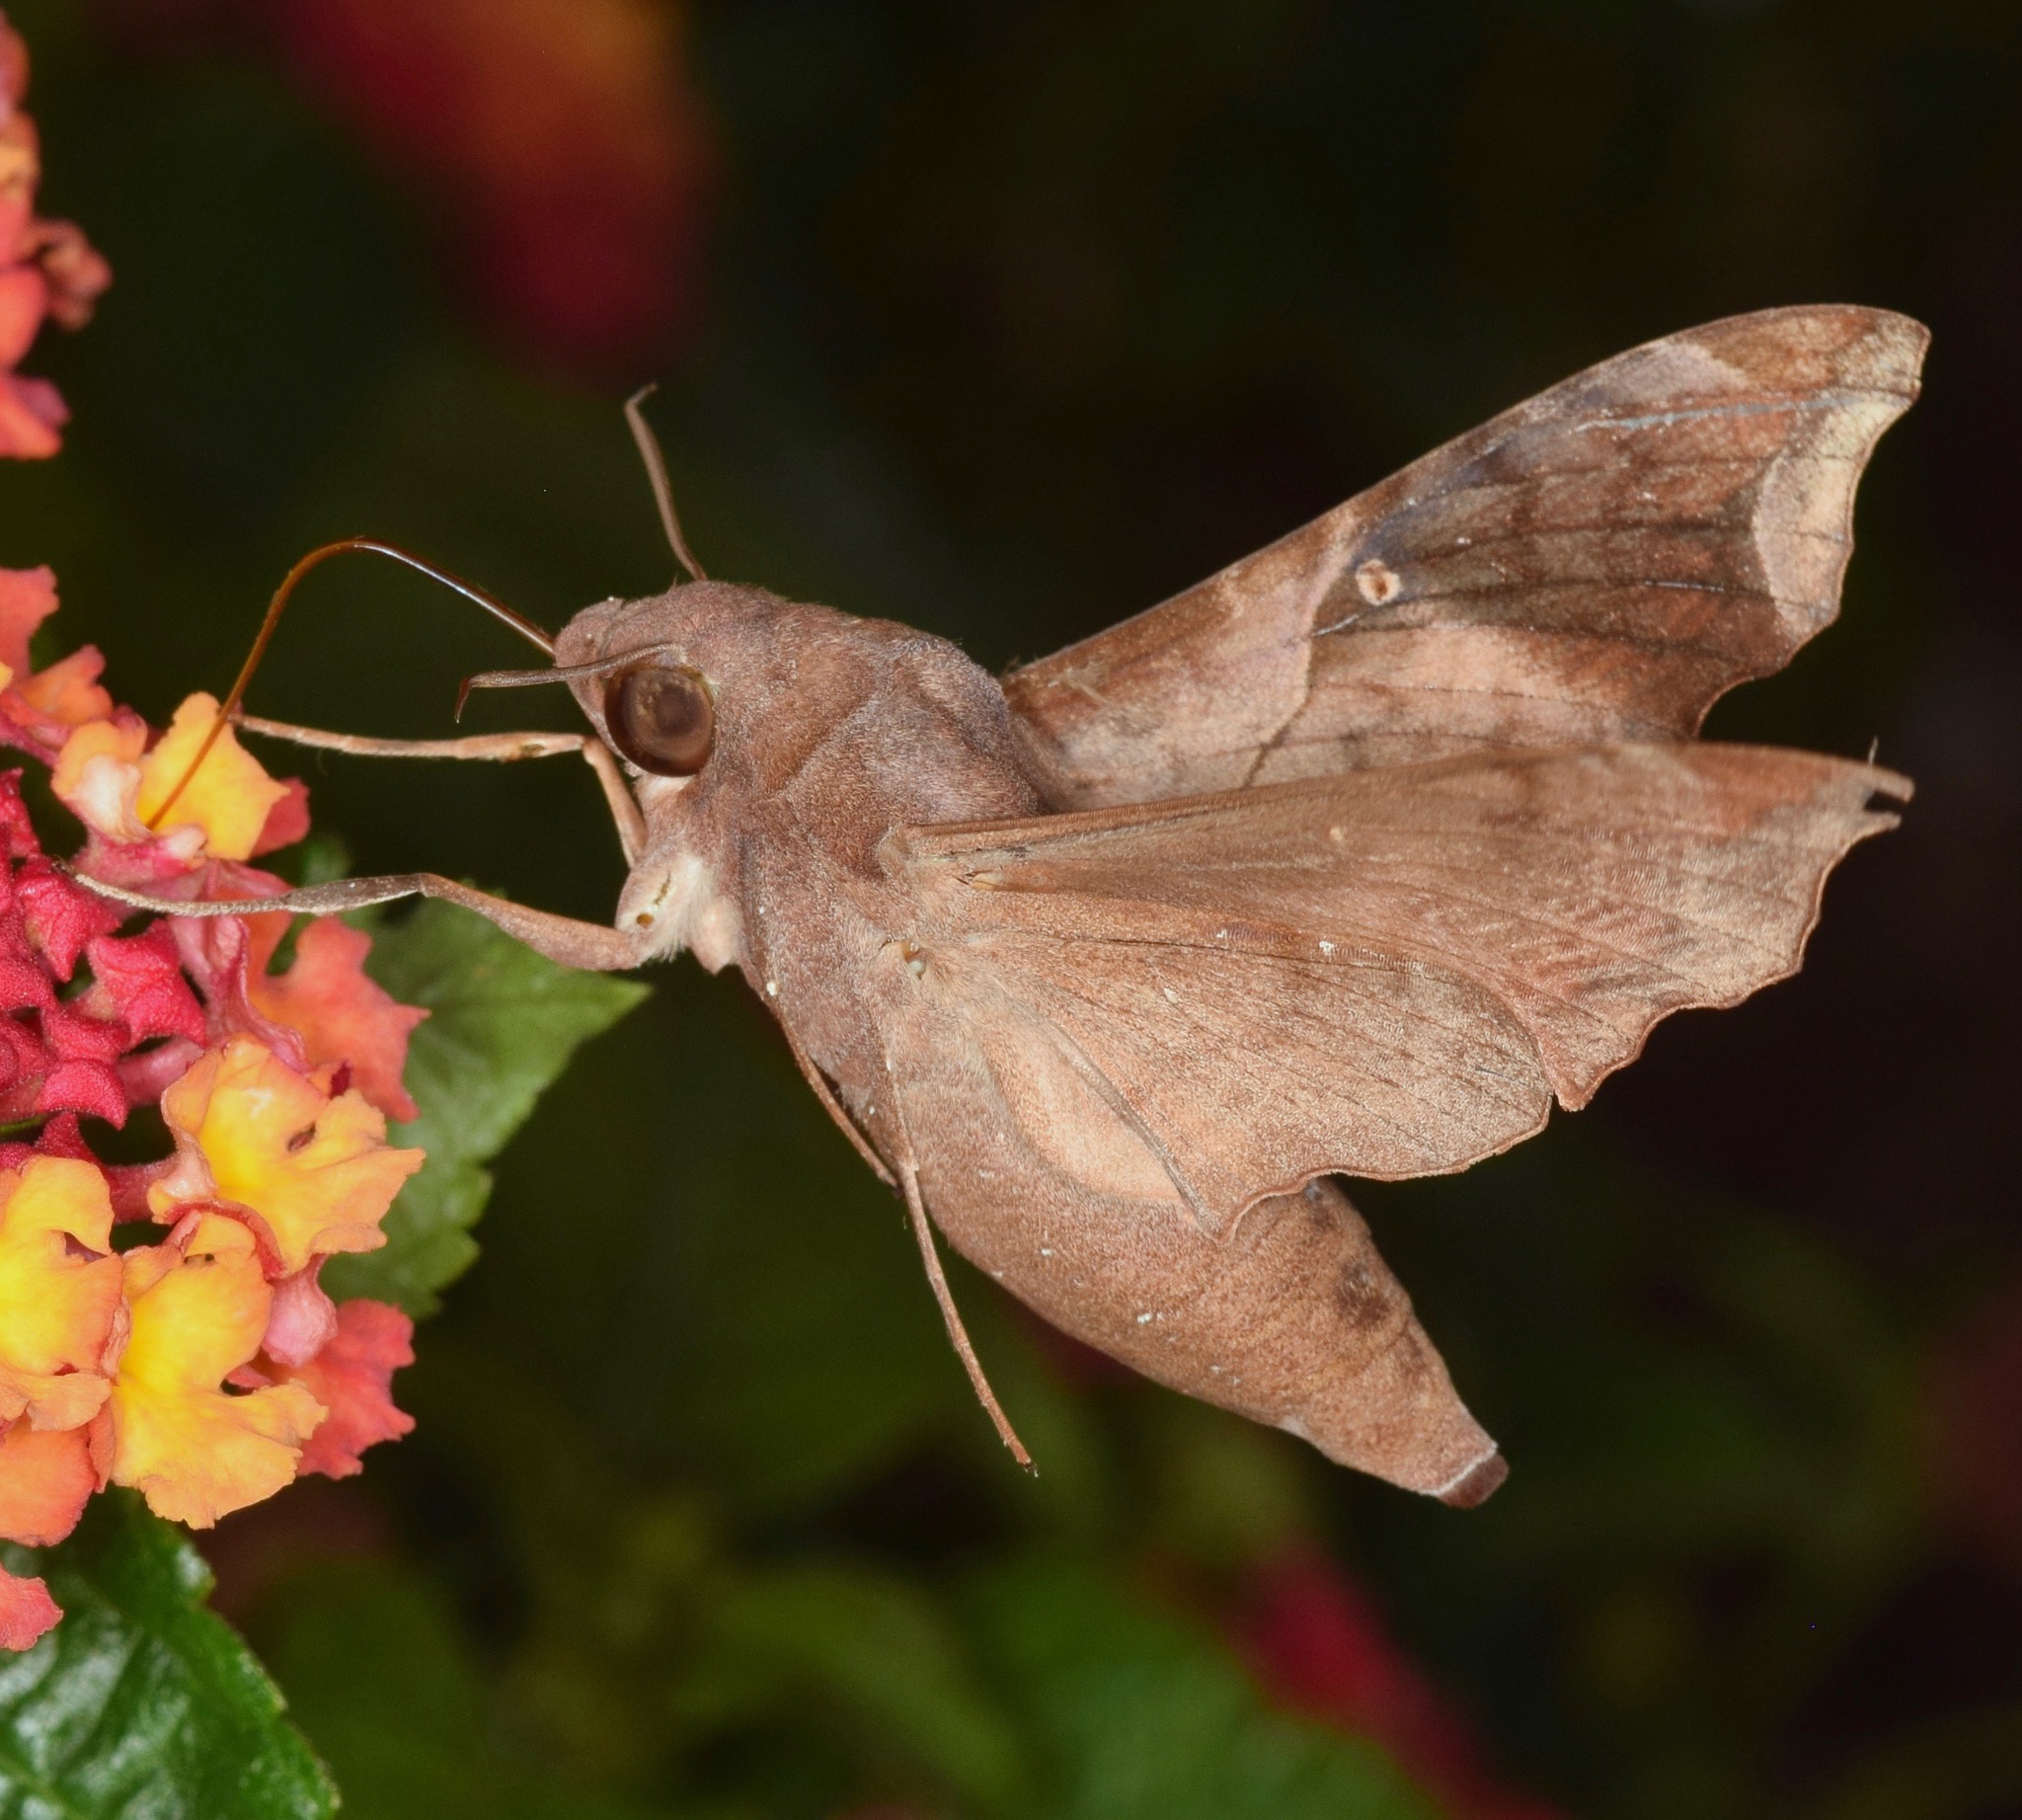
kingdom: Animalia
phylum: Arthropoda
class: Insecta
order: Lepidoptera
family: Sphingidae
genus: Enyo
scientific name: Enyo lugubris
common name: Mournful sphinx
